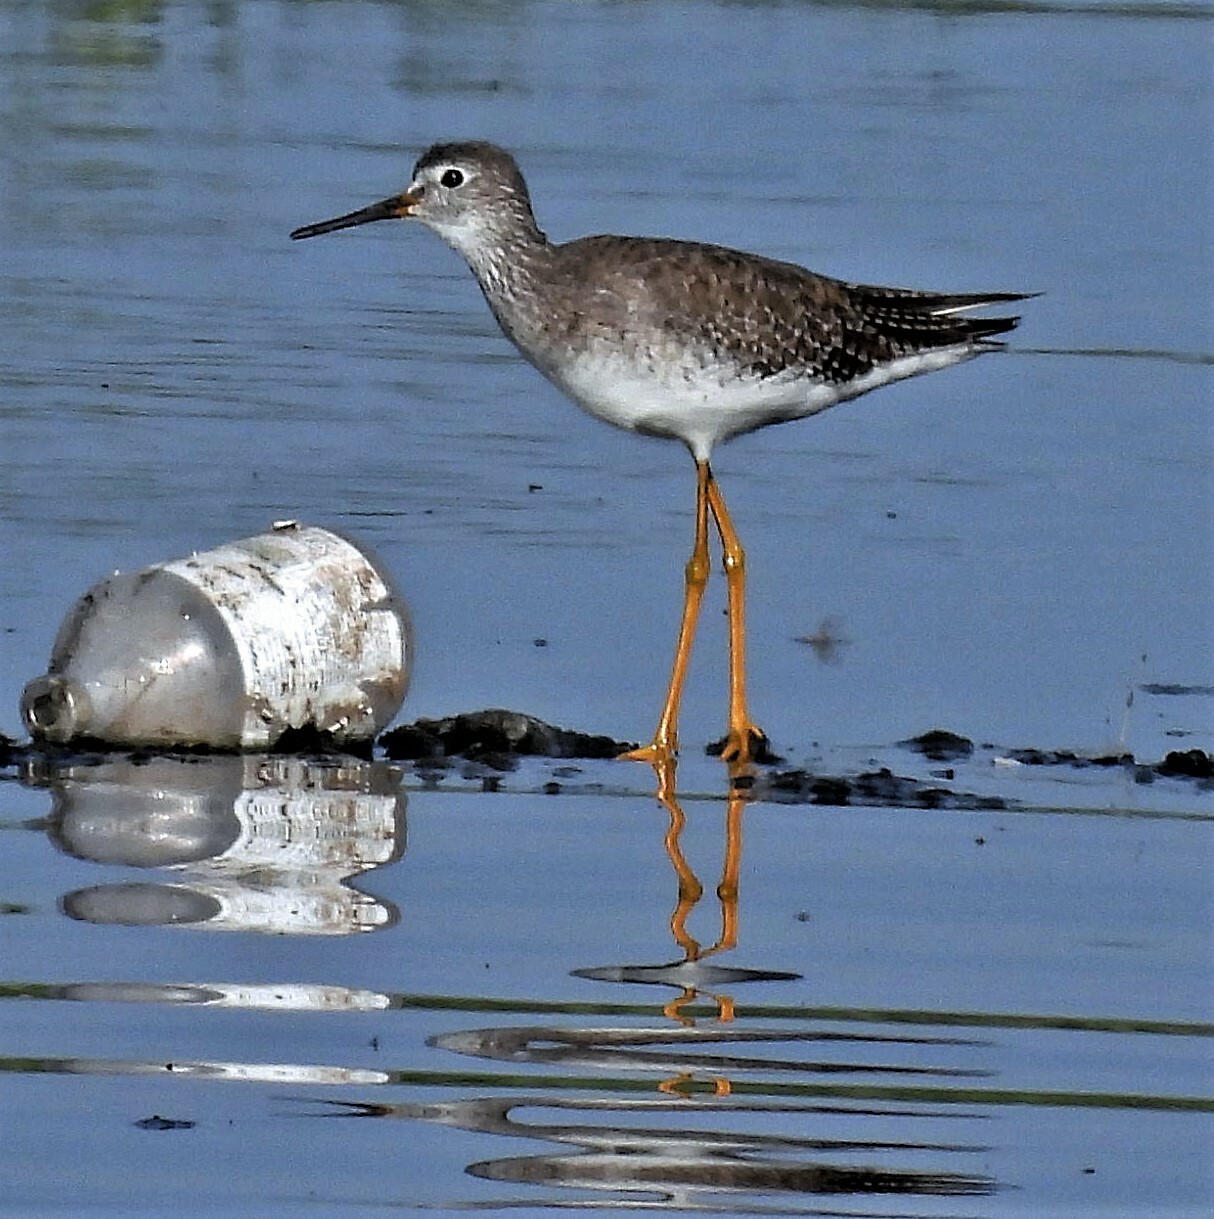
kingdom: Animalia
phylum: Chordata
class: Aves
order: Charadriiformes
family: Scolopacidae
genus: Tringa
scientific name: Tringa flavipes
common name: Lesser yellowlegs
